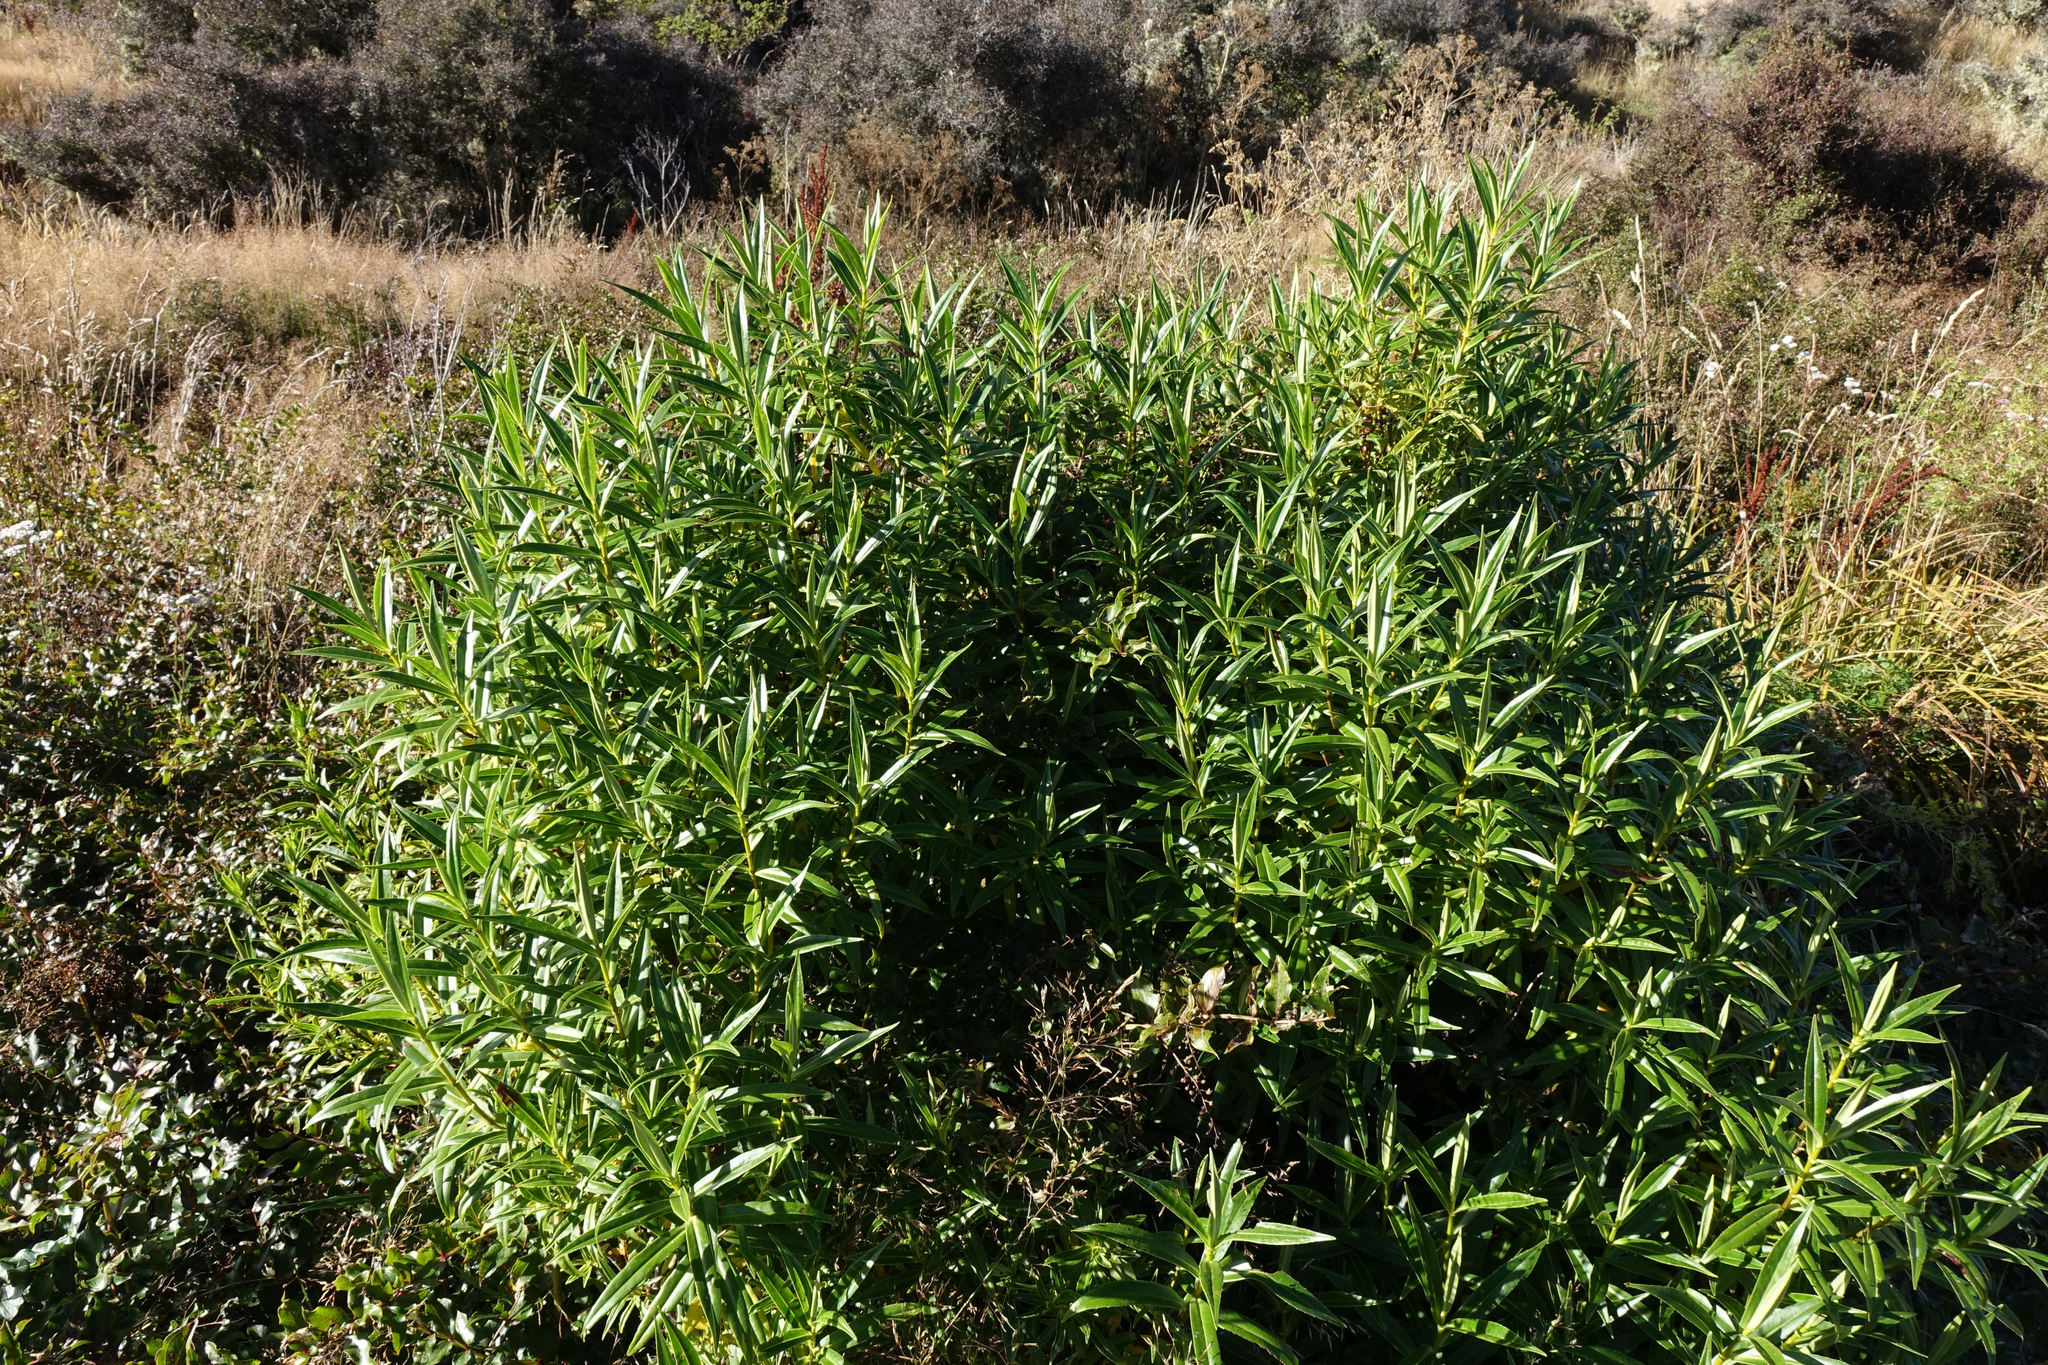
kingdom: Plantae
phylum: Tracheophyta
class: Magnoliopsida
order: Lamiales
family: Plantaginaceae
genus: Veronica
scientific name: Veronica salicifolia
